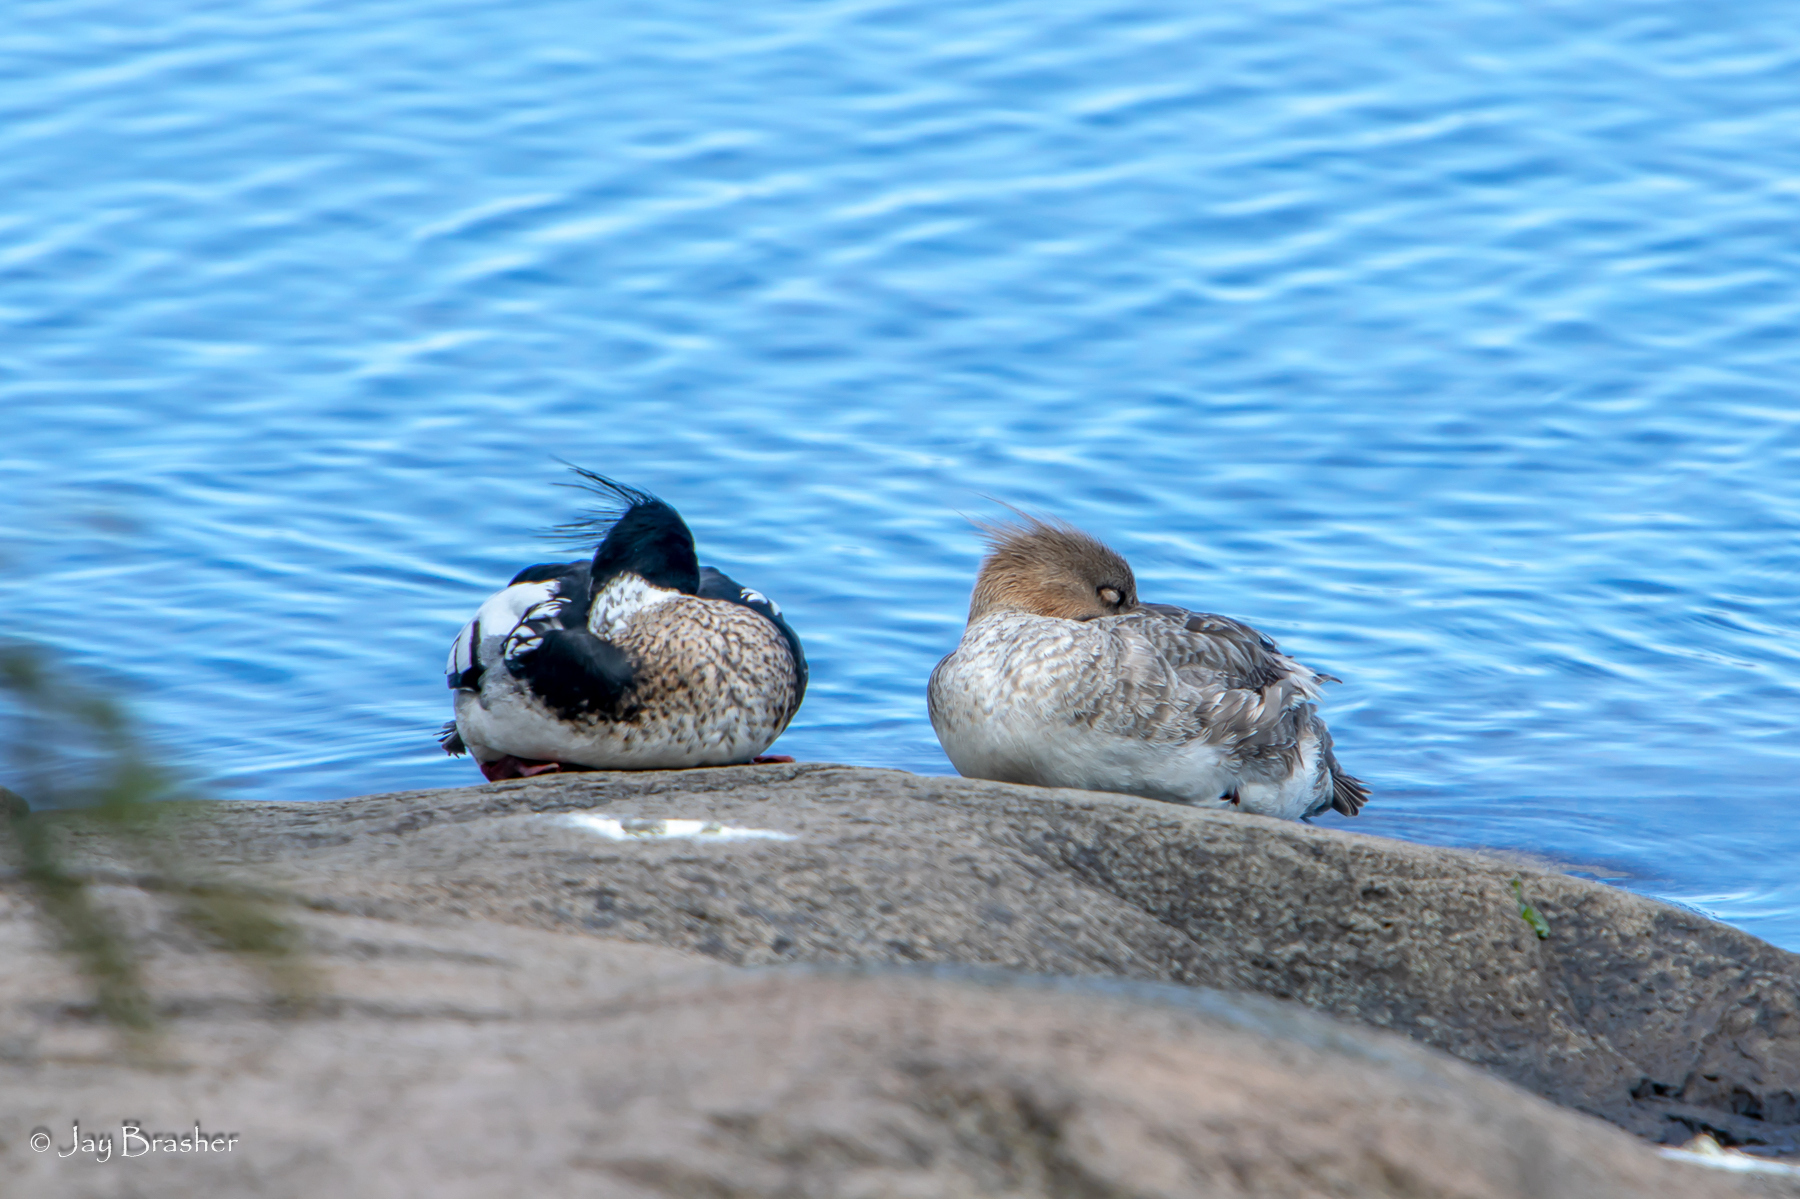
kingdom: Animalia
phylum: Chordata
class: Aves
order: Anseriformes
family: Anatidae
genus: Mergus
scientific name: Mergus serrator
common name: Red-breasted merganser
